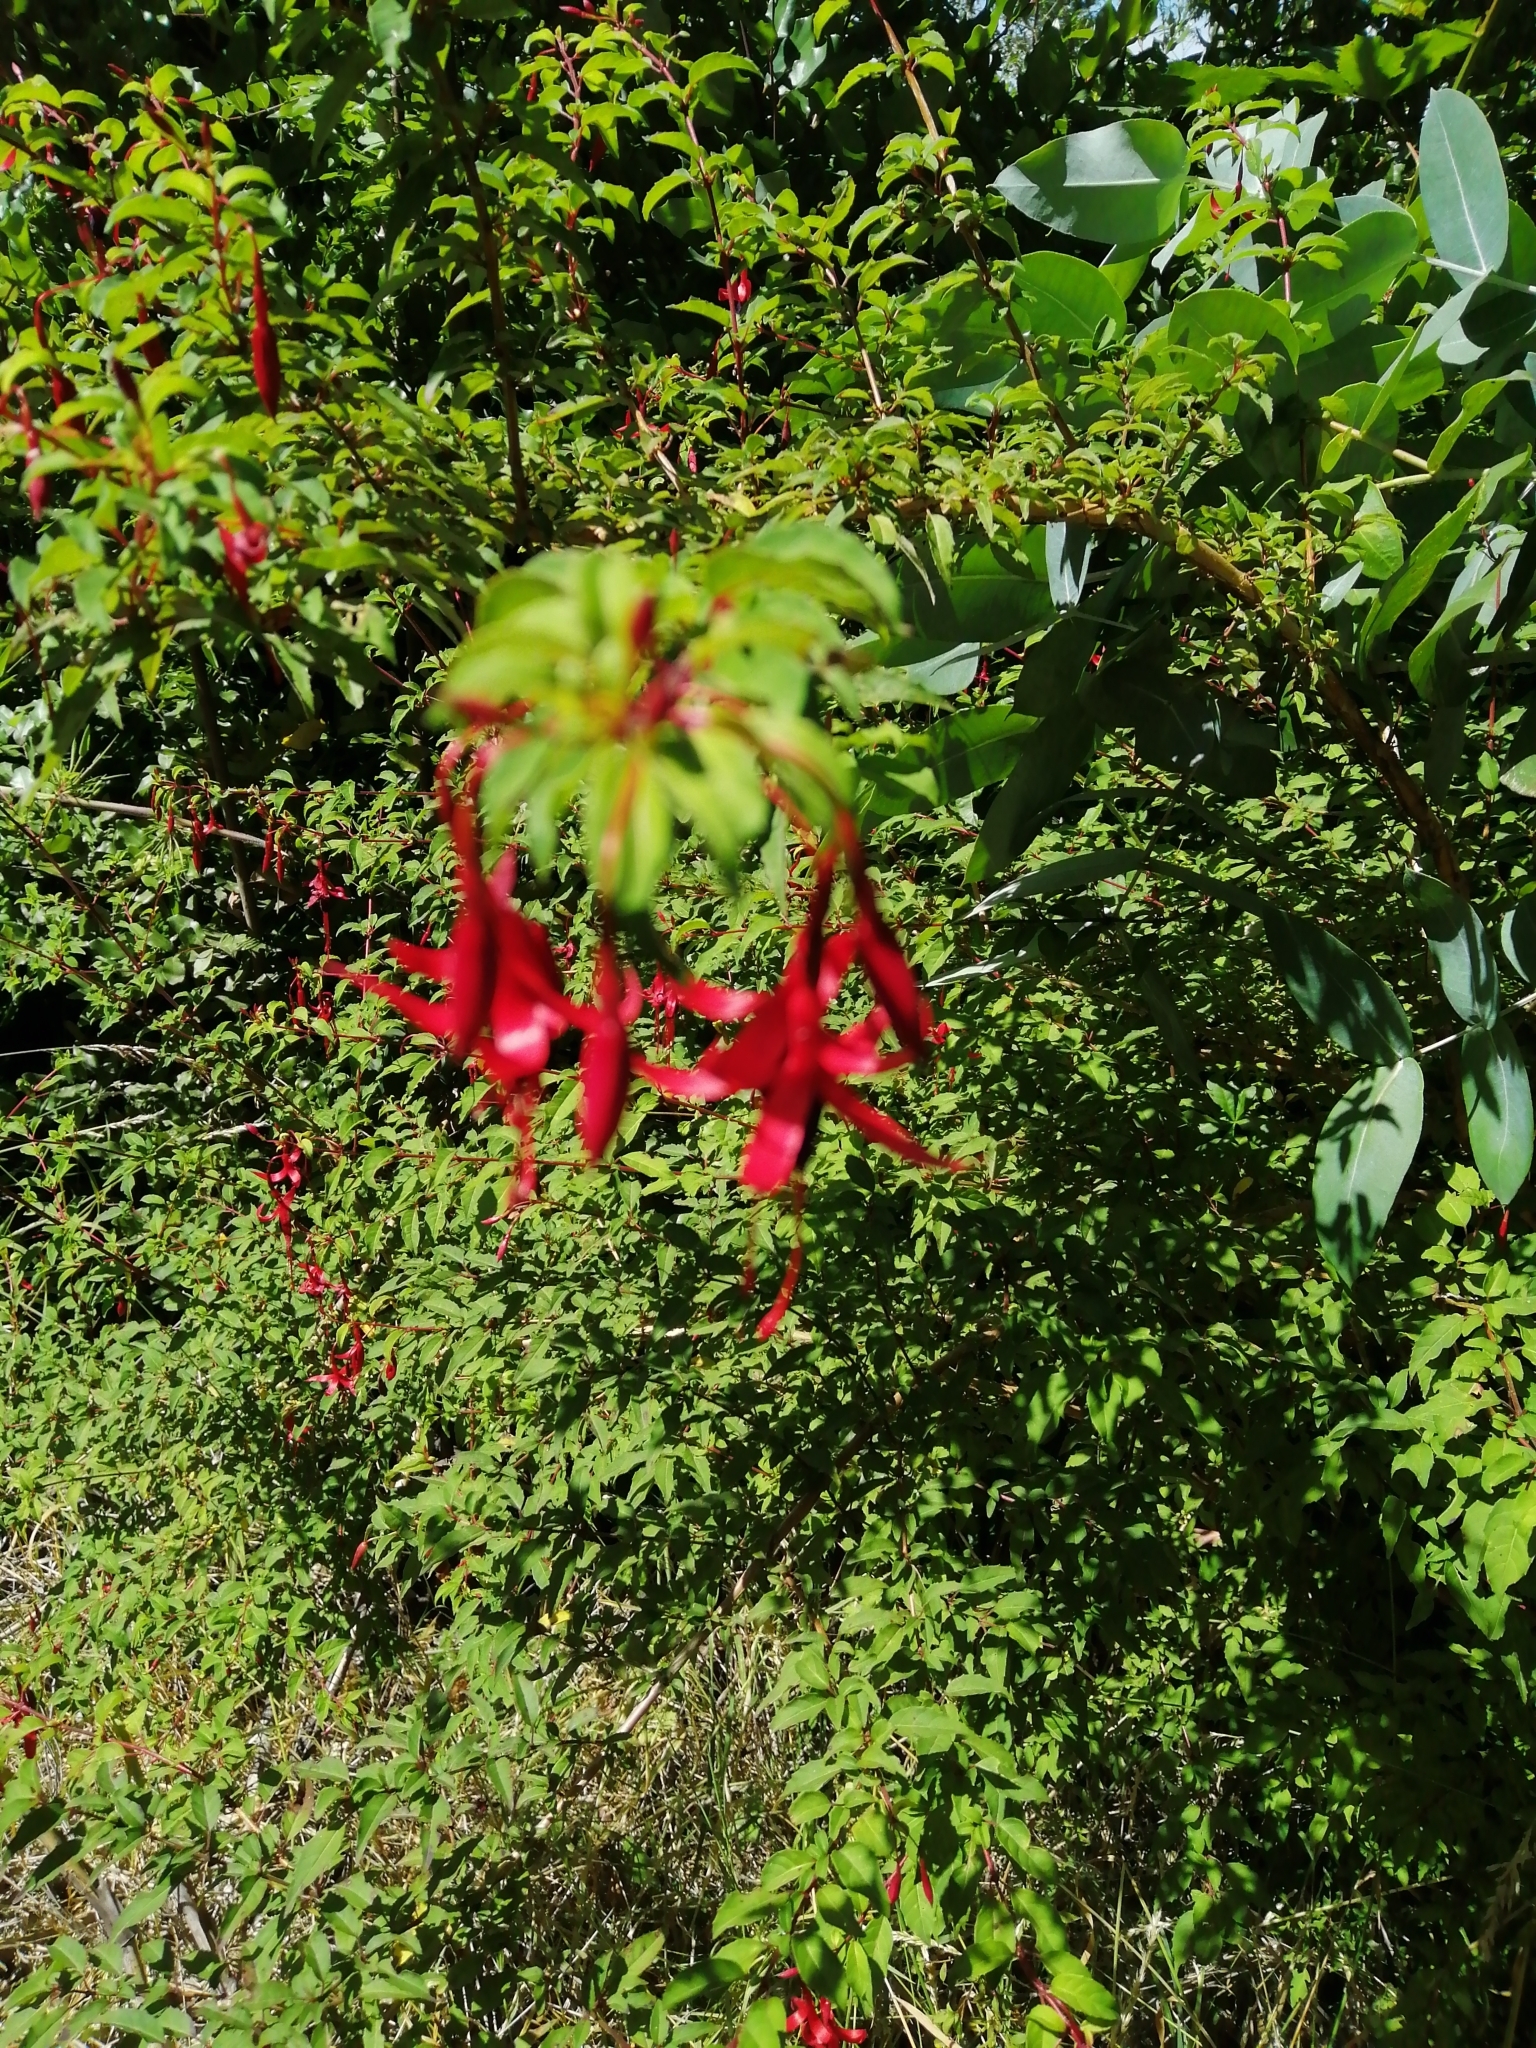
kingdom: Plantae
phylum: Tracheophyta
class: Magnoliopsida
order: Myrtales
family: Onagraceae
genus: Fuchsia
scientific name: Fuchsia magellanica
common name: Hardy fuchsia
